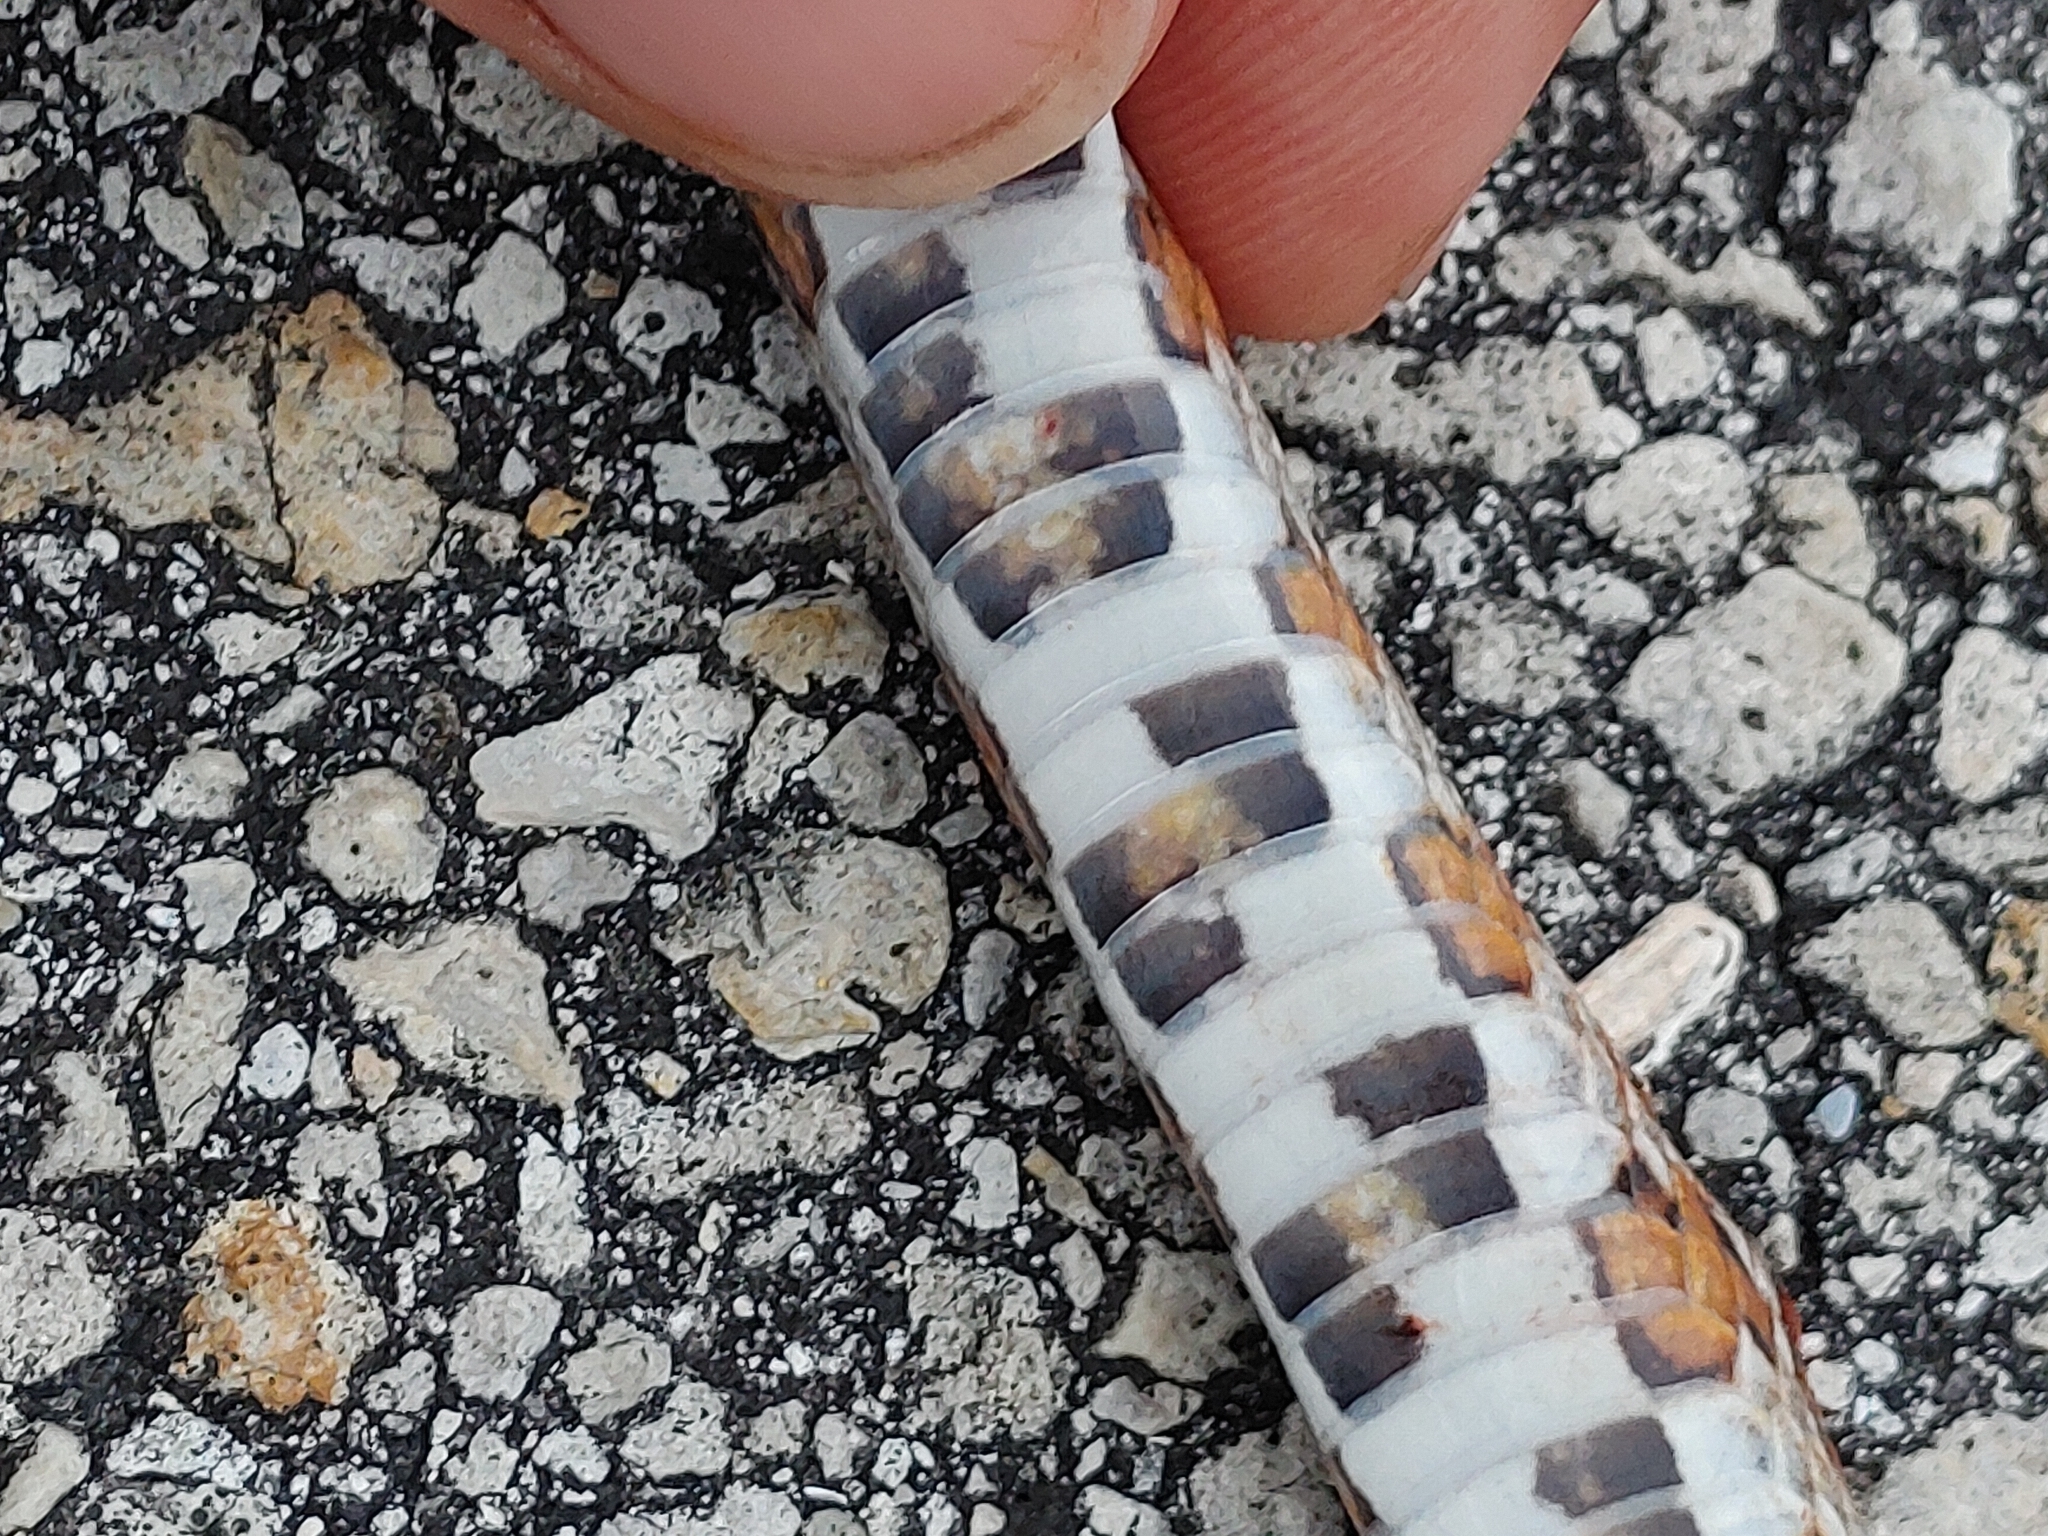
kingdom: Animalia
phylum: Chordata
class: Squamata
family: Colubridae
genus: Pantherophis
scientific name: Pantherophis guttatus
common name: Red cornsnake
